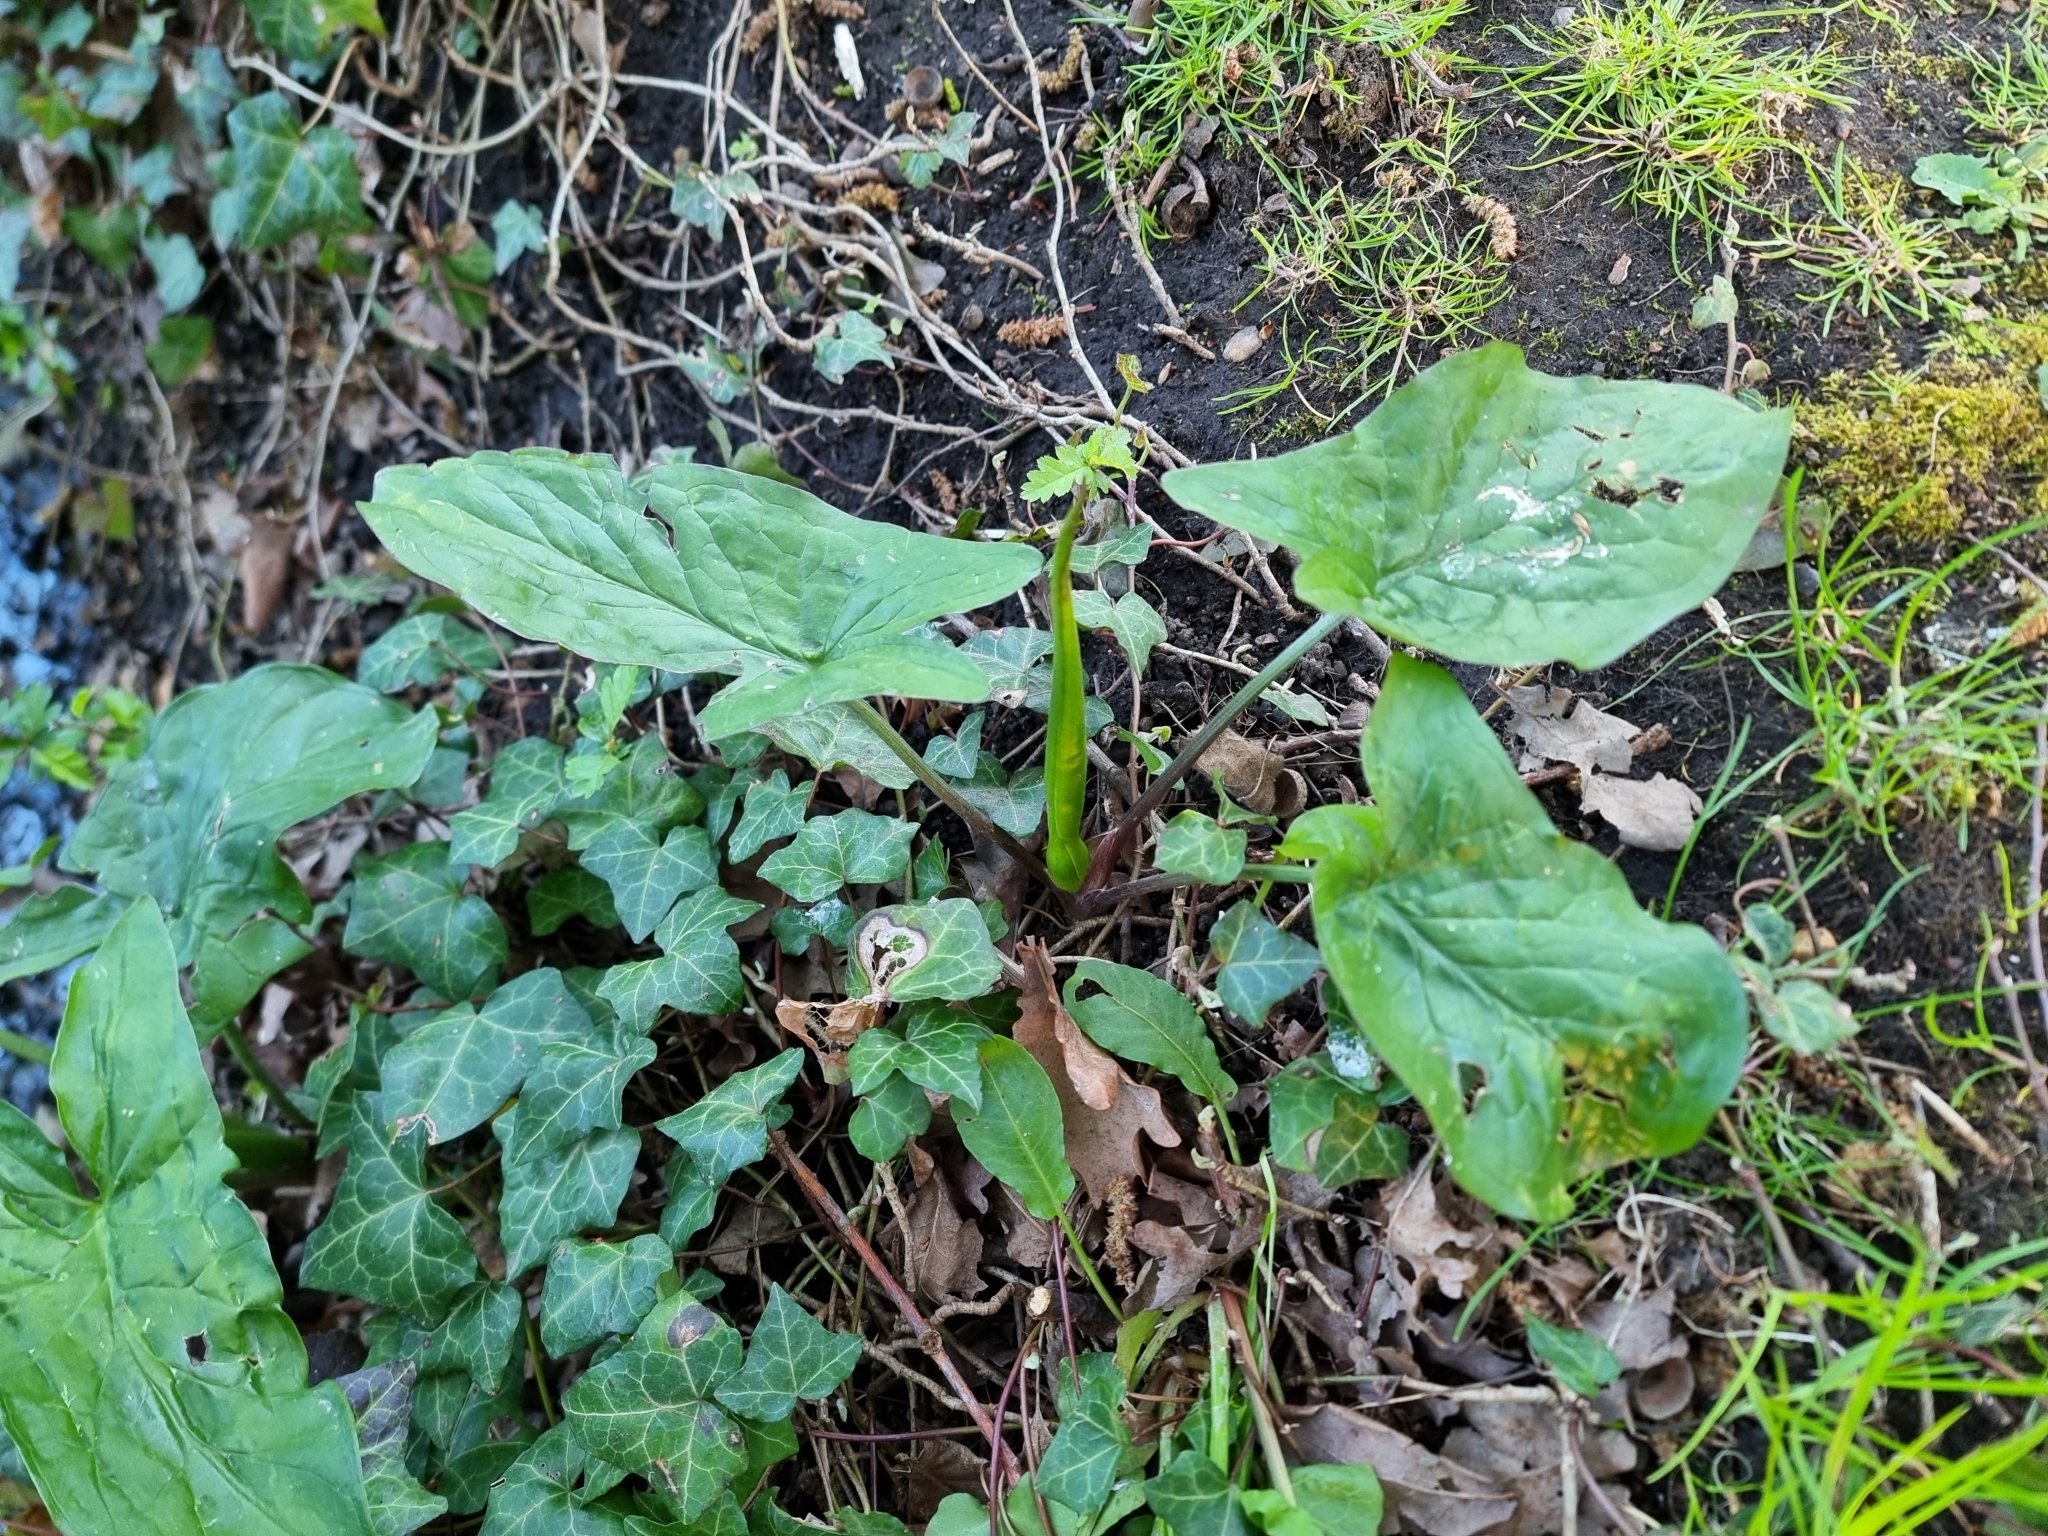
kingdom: Plantae
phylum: Tracheophyta
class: Liliopsida
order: Alismatales
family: Araceae
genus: Arum
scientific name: Arum maculatum
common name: Lords-and-ladies
